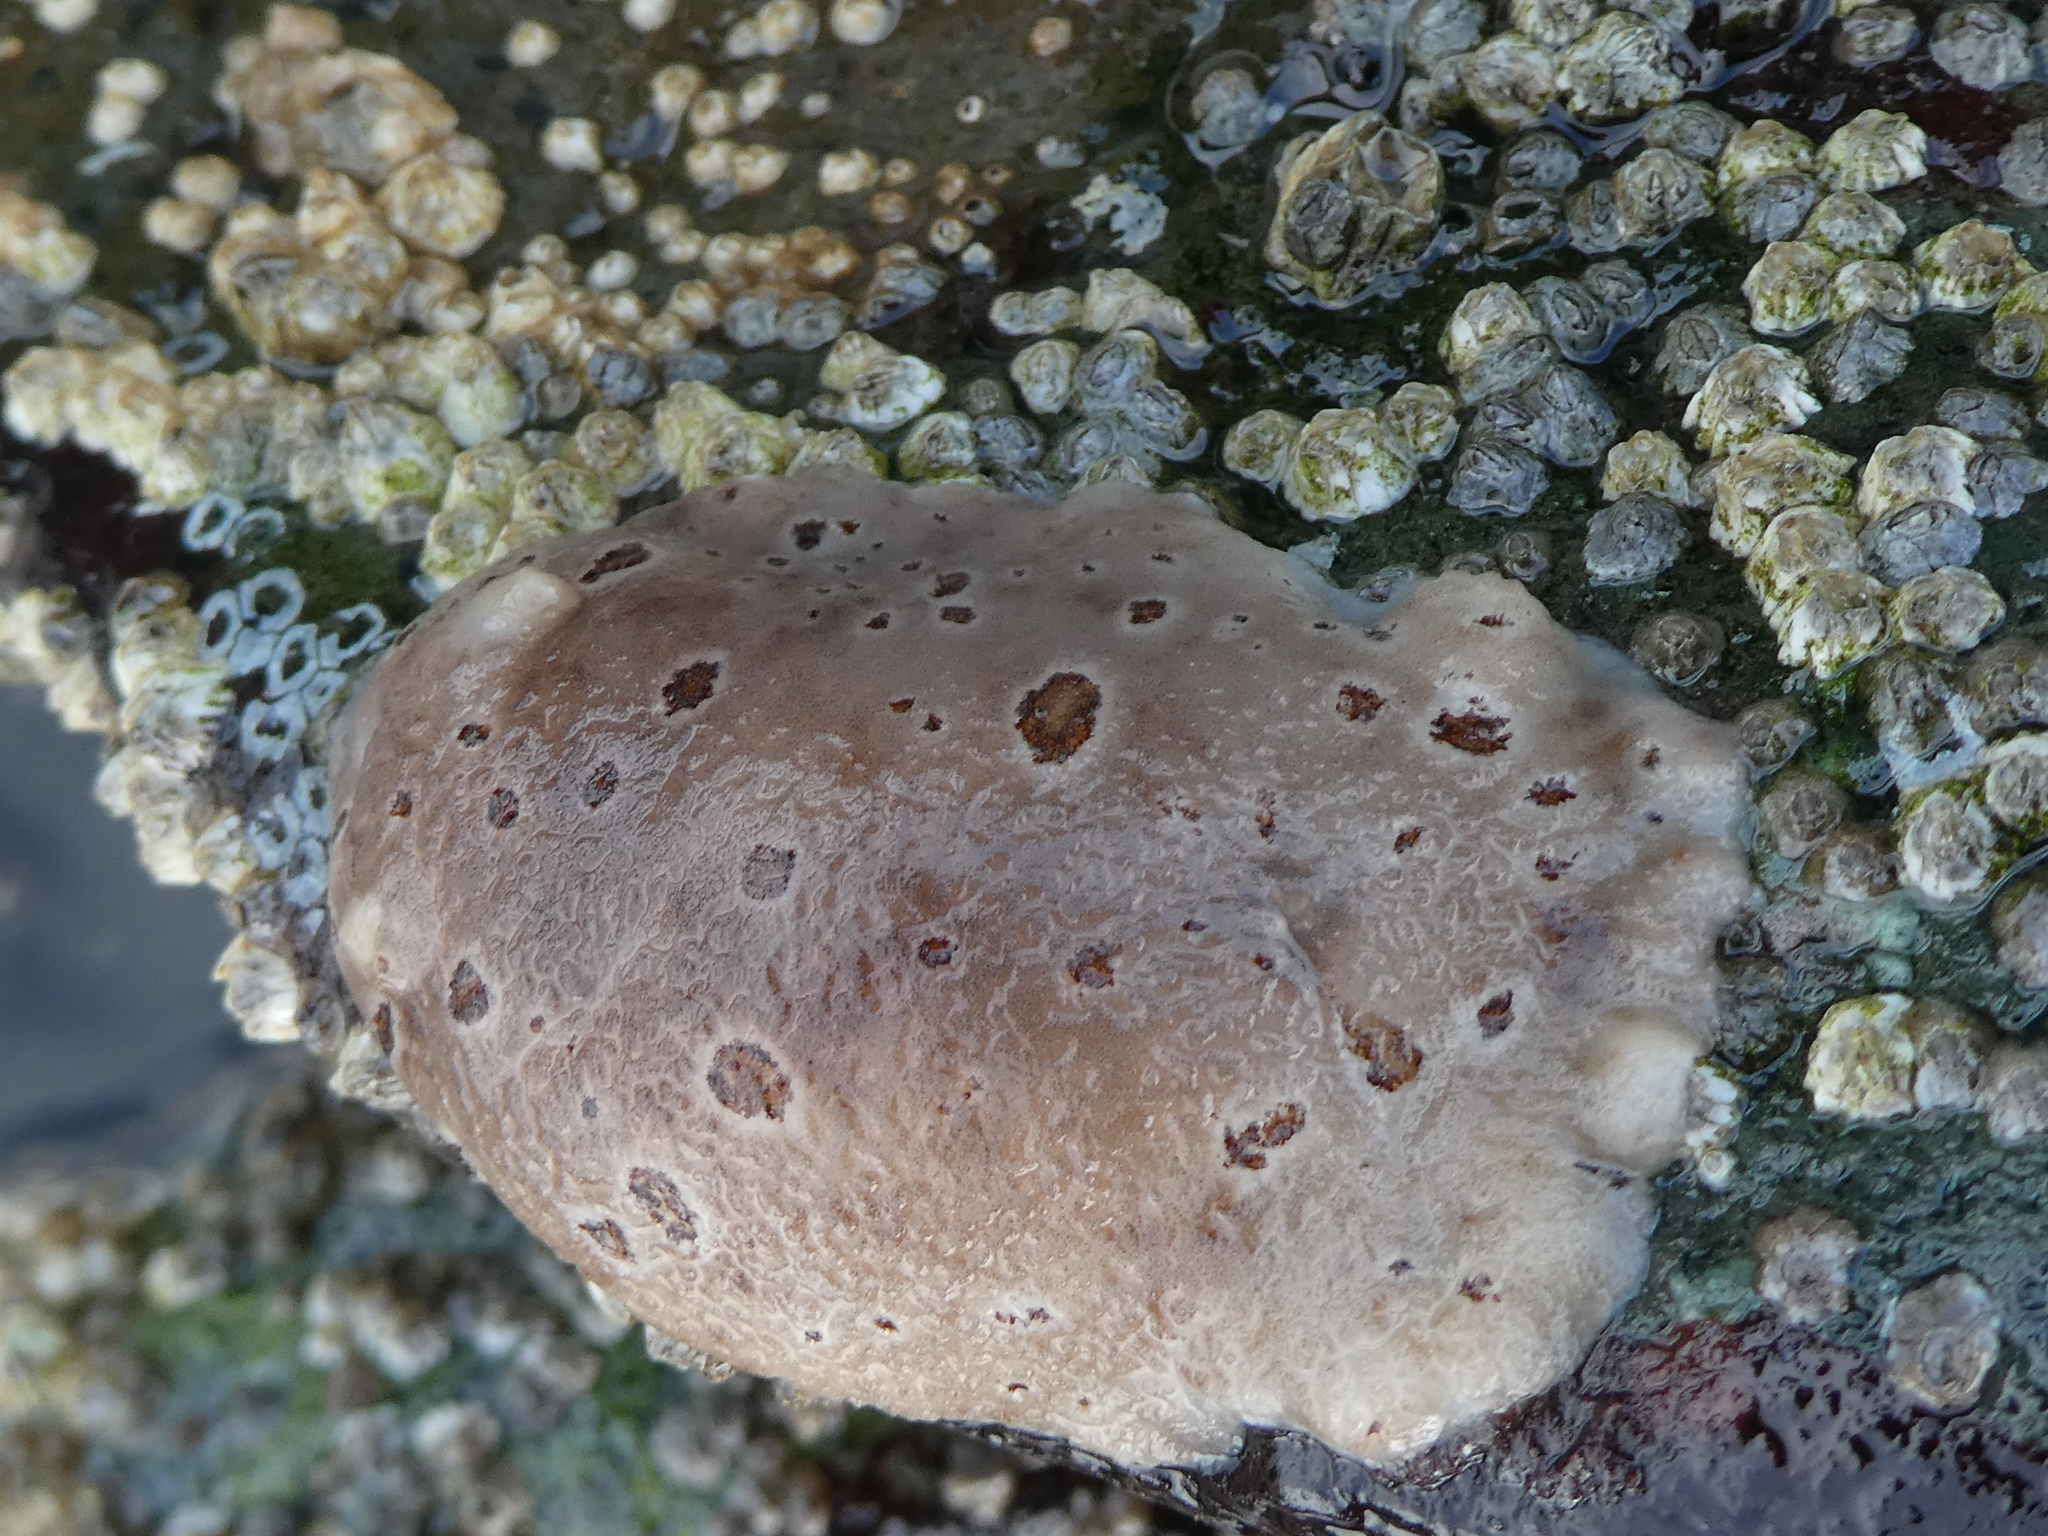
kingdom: Animalia
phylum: Mollusca
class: Gastropoda
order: Nudibranchia
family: Discodorididae
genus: Diaulula
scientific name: Diaulula odonoghuei
